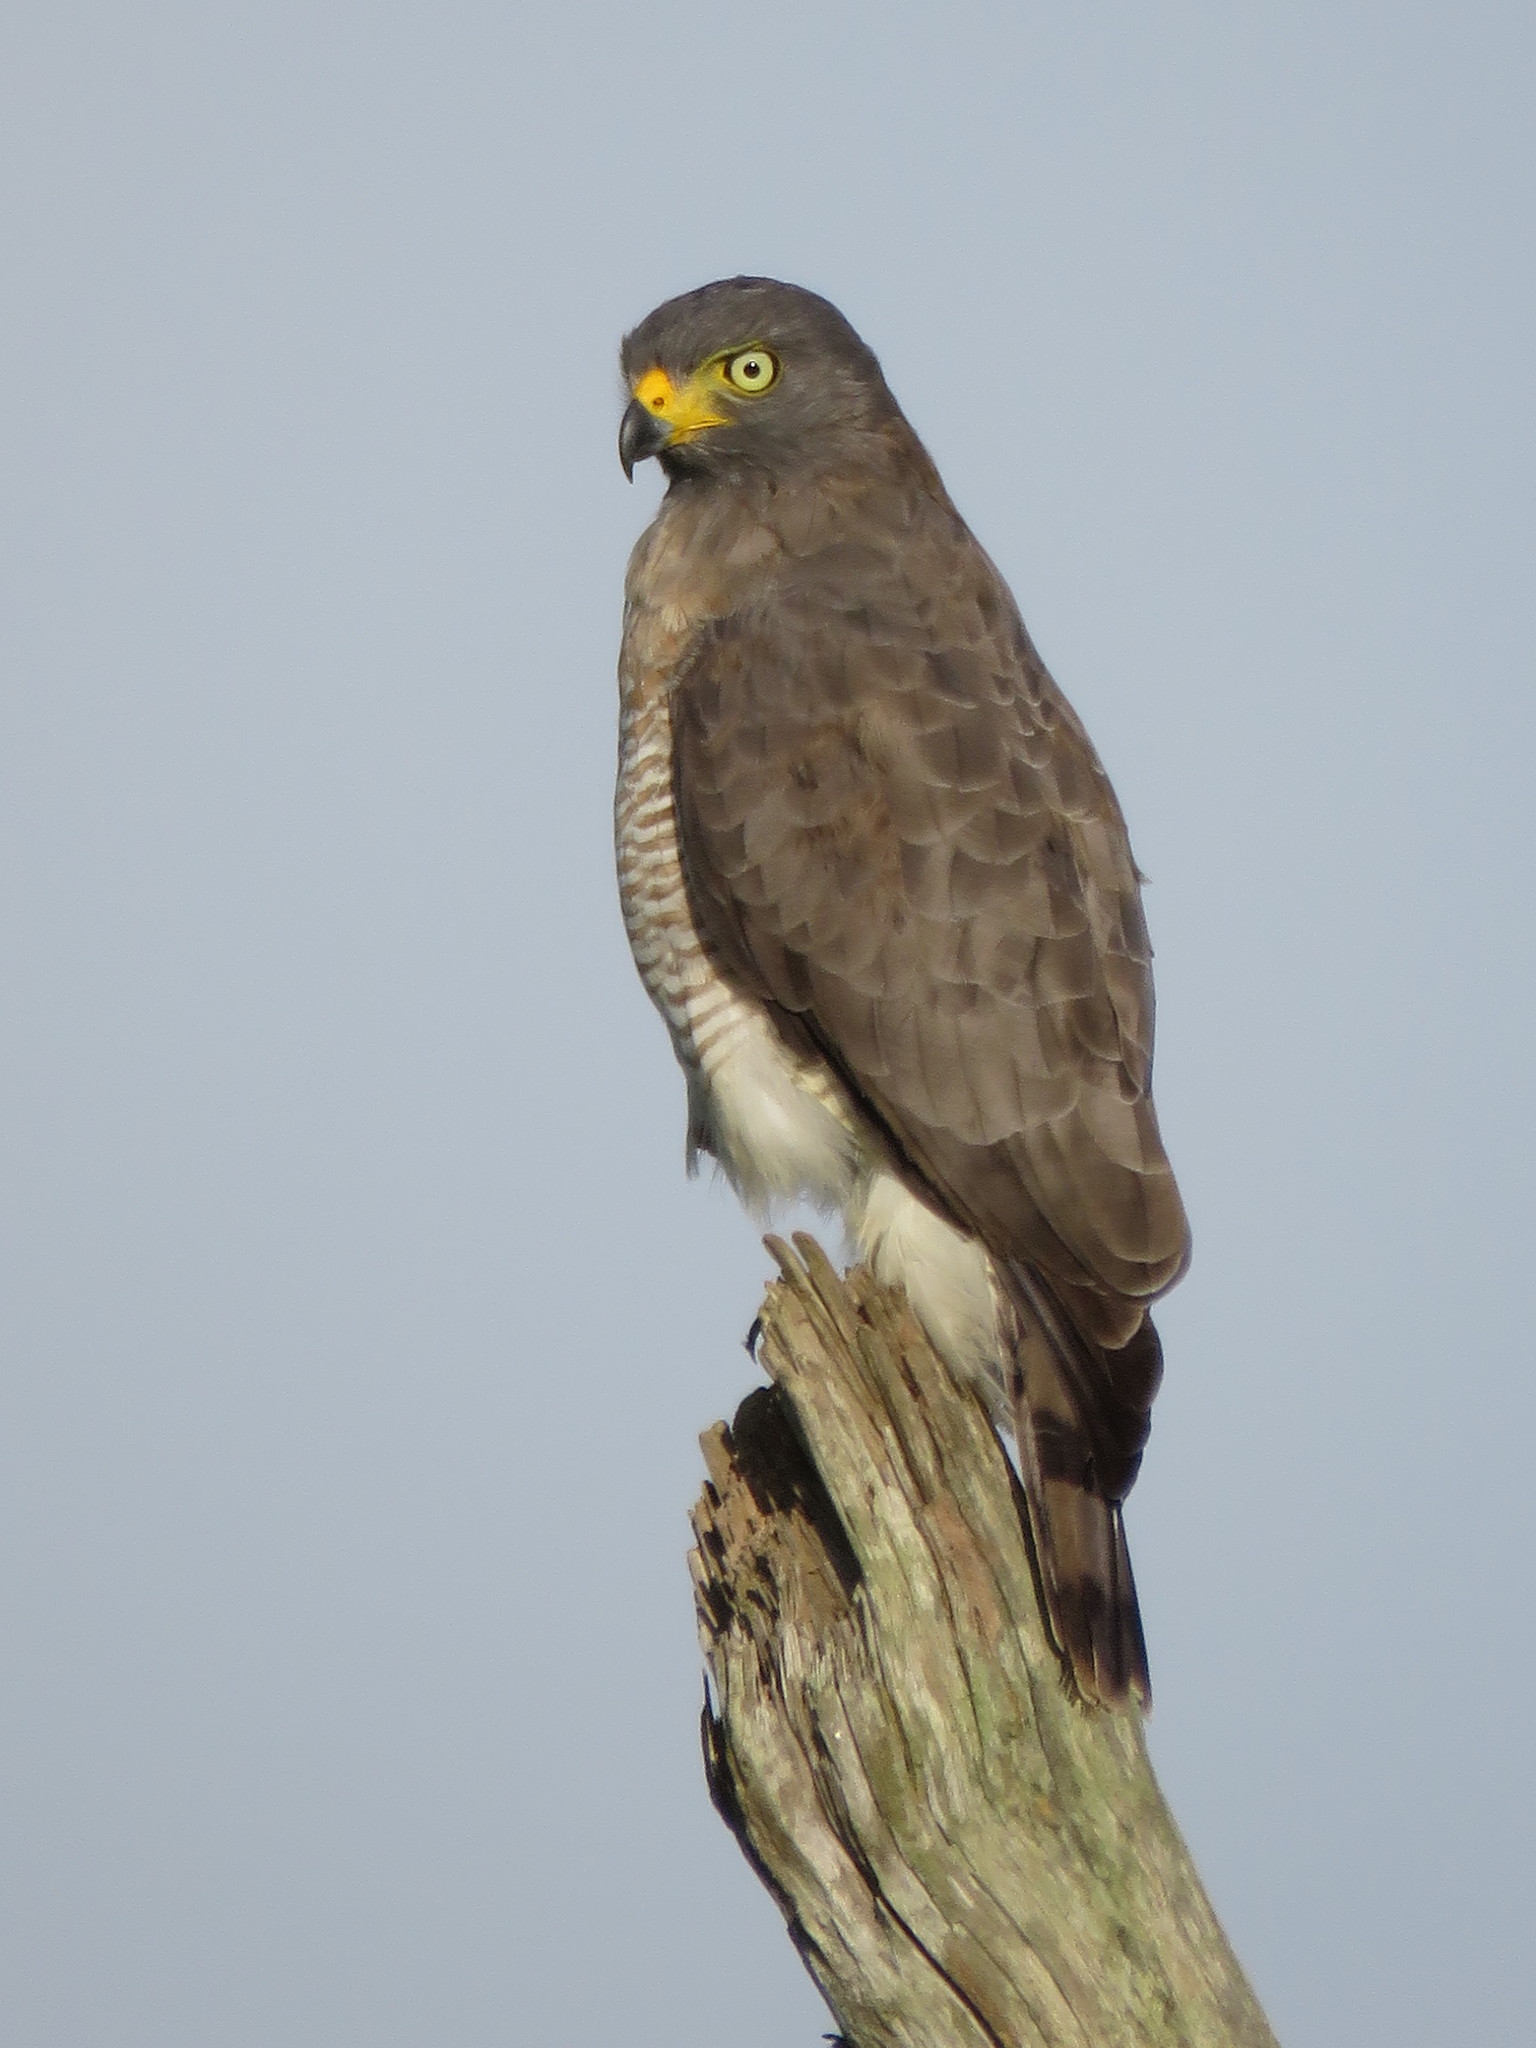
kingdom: Animalia
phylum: Chordata
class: Aves
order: Accipitriformes
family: Accipitridae
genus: Rupornis
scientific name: Rupornis magnirostris
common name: Roadside hawk
